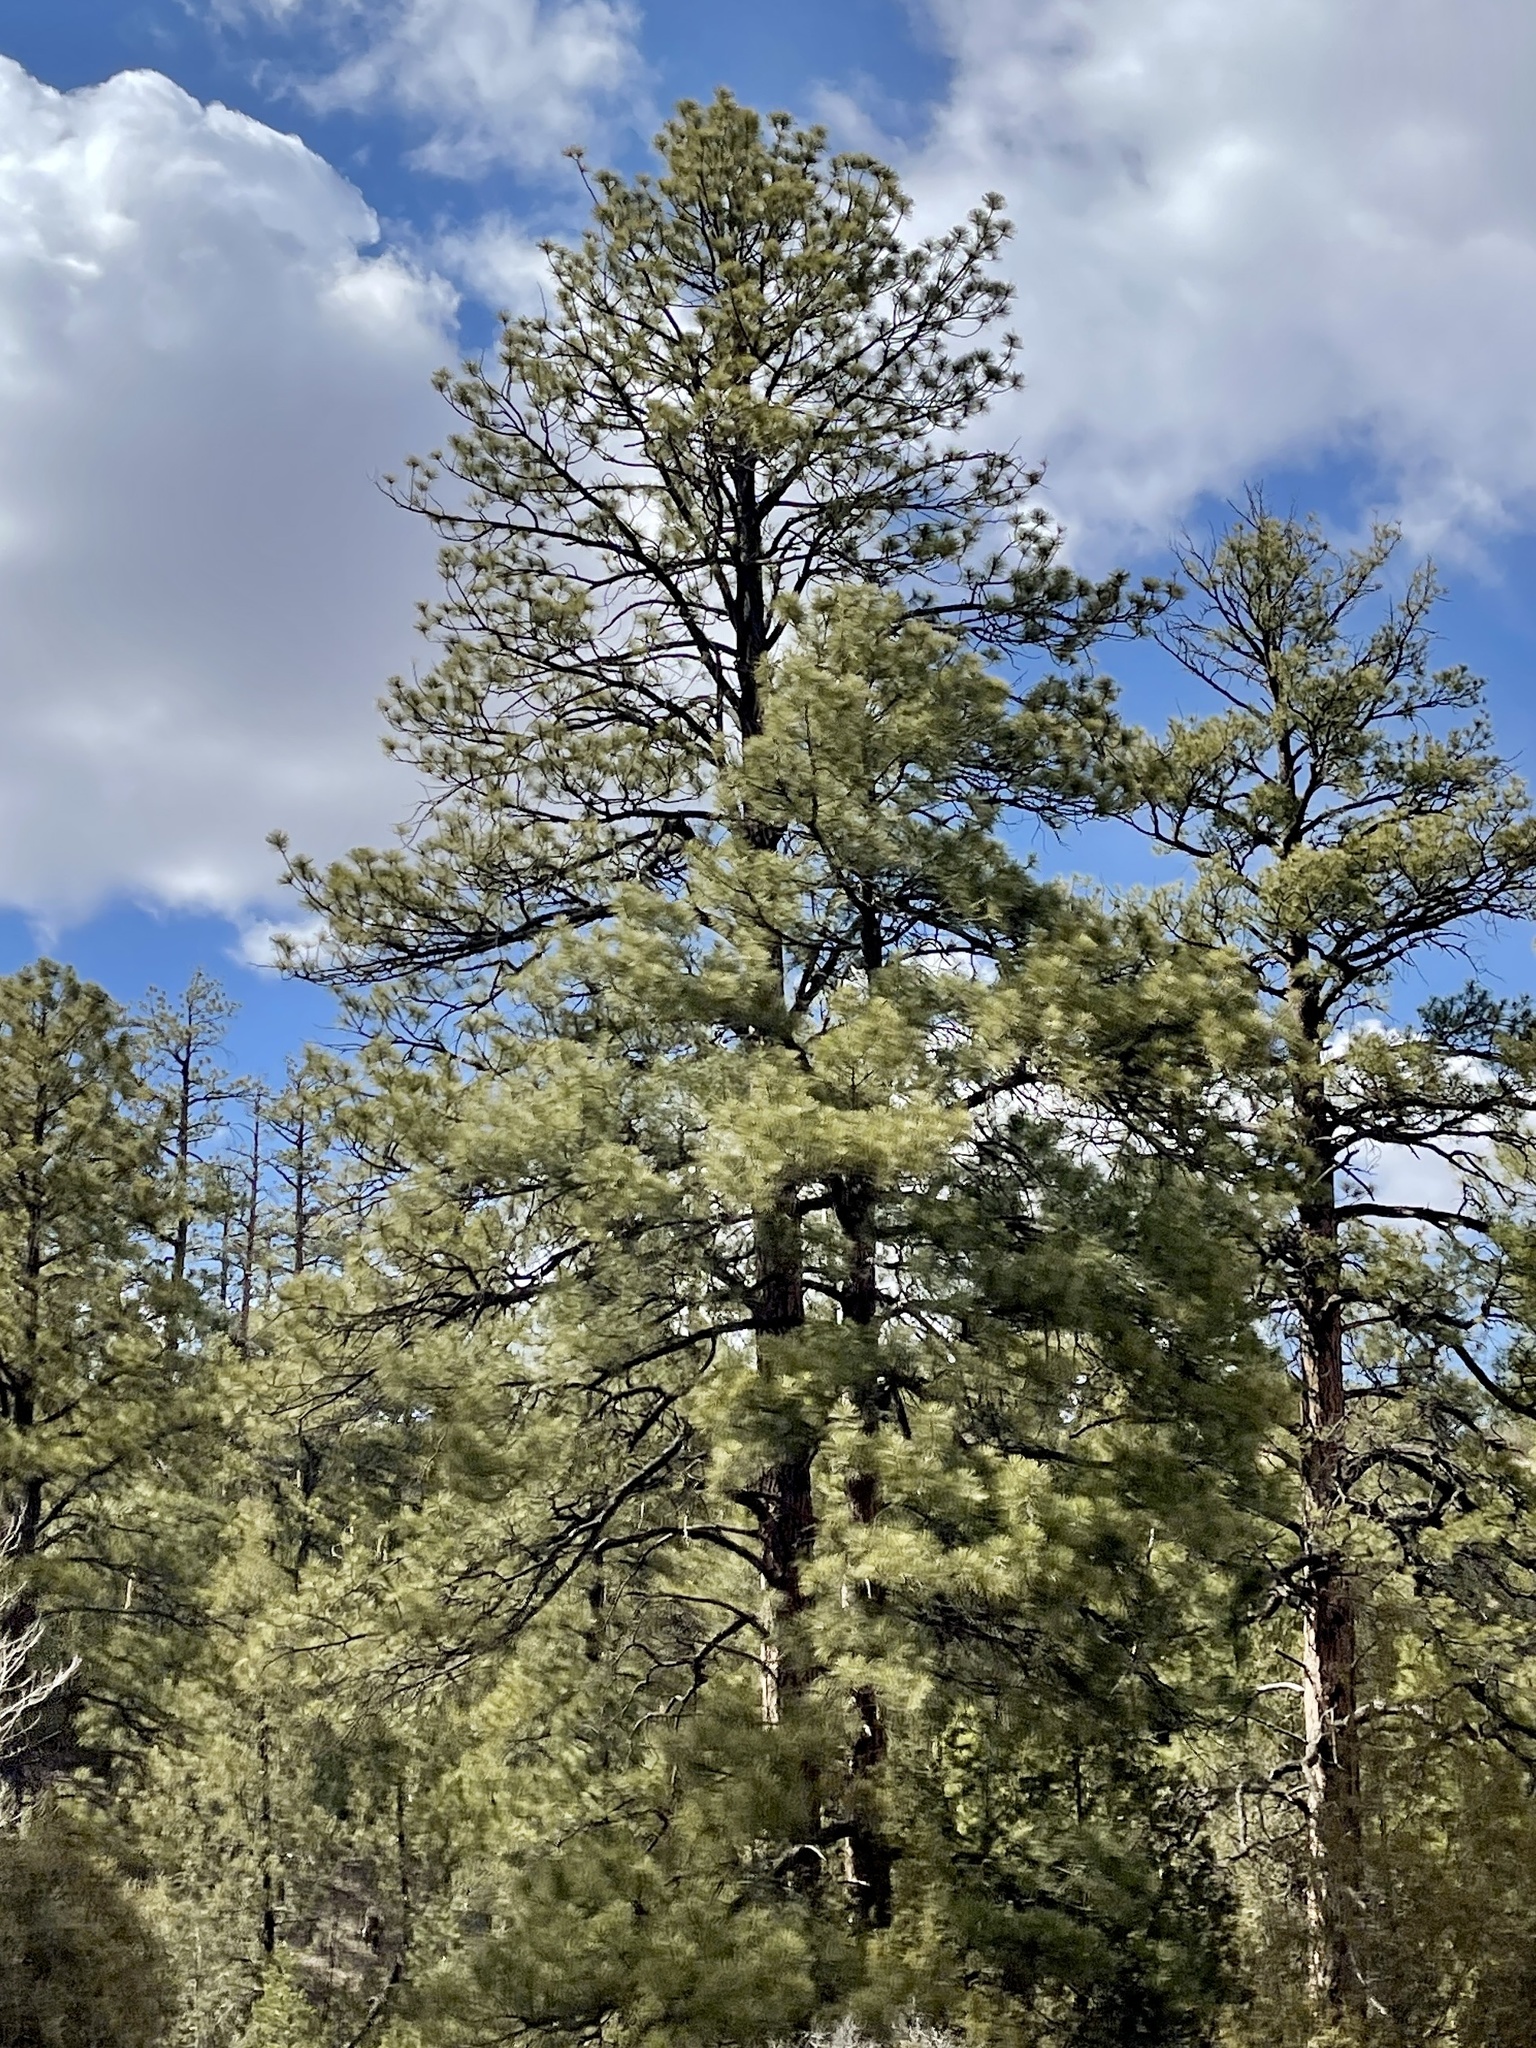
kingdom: Plantae
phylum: Tracheophyta
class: Pinopsida
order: Pinales
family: Pinaceae
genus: Pinus
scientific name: Pinus ponderosa
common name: Western yellow-pine
